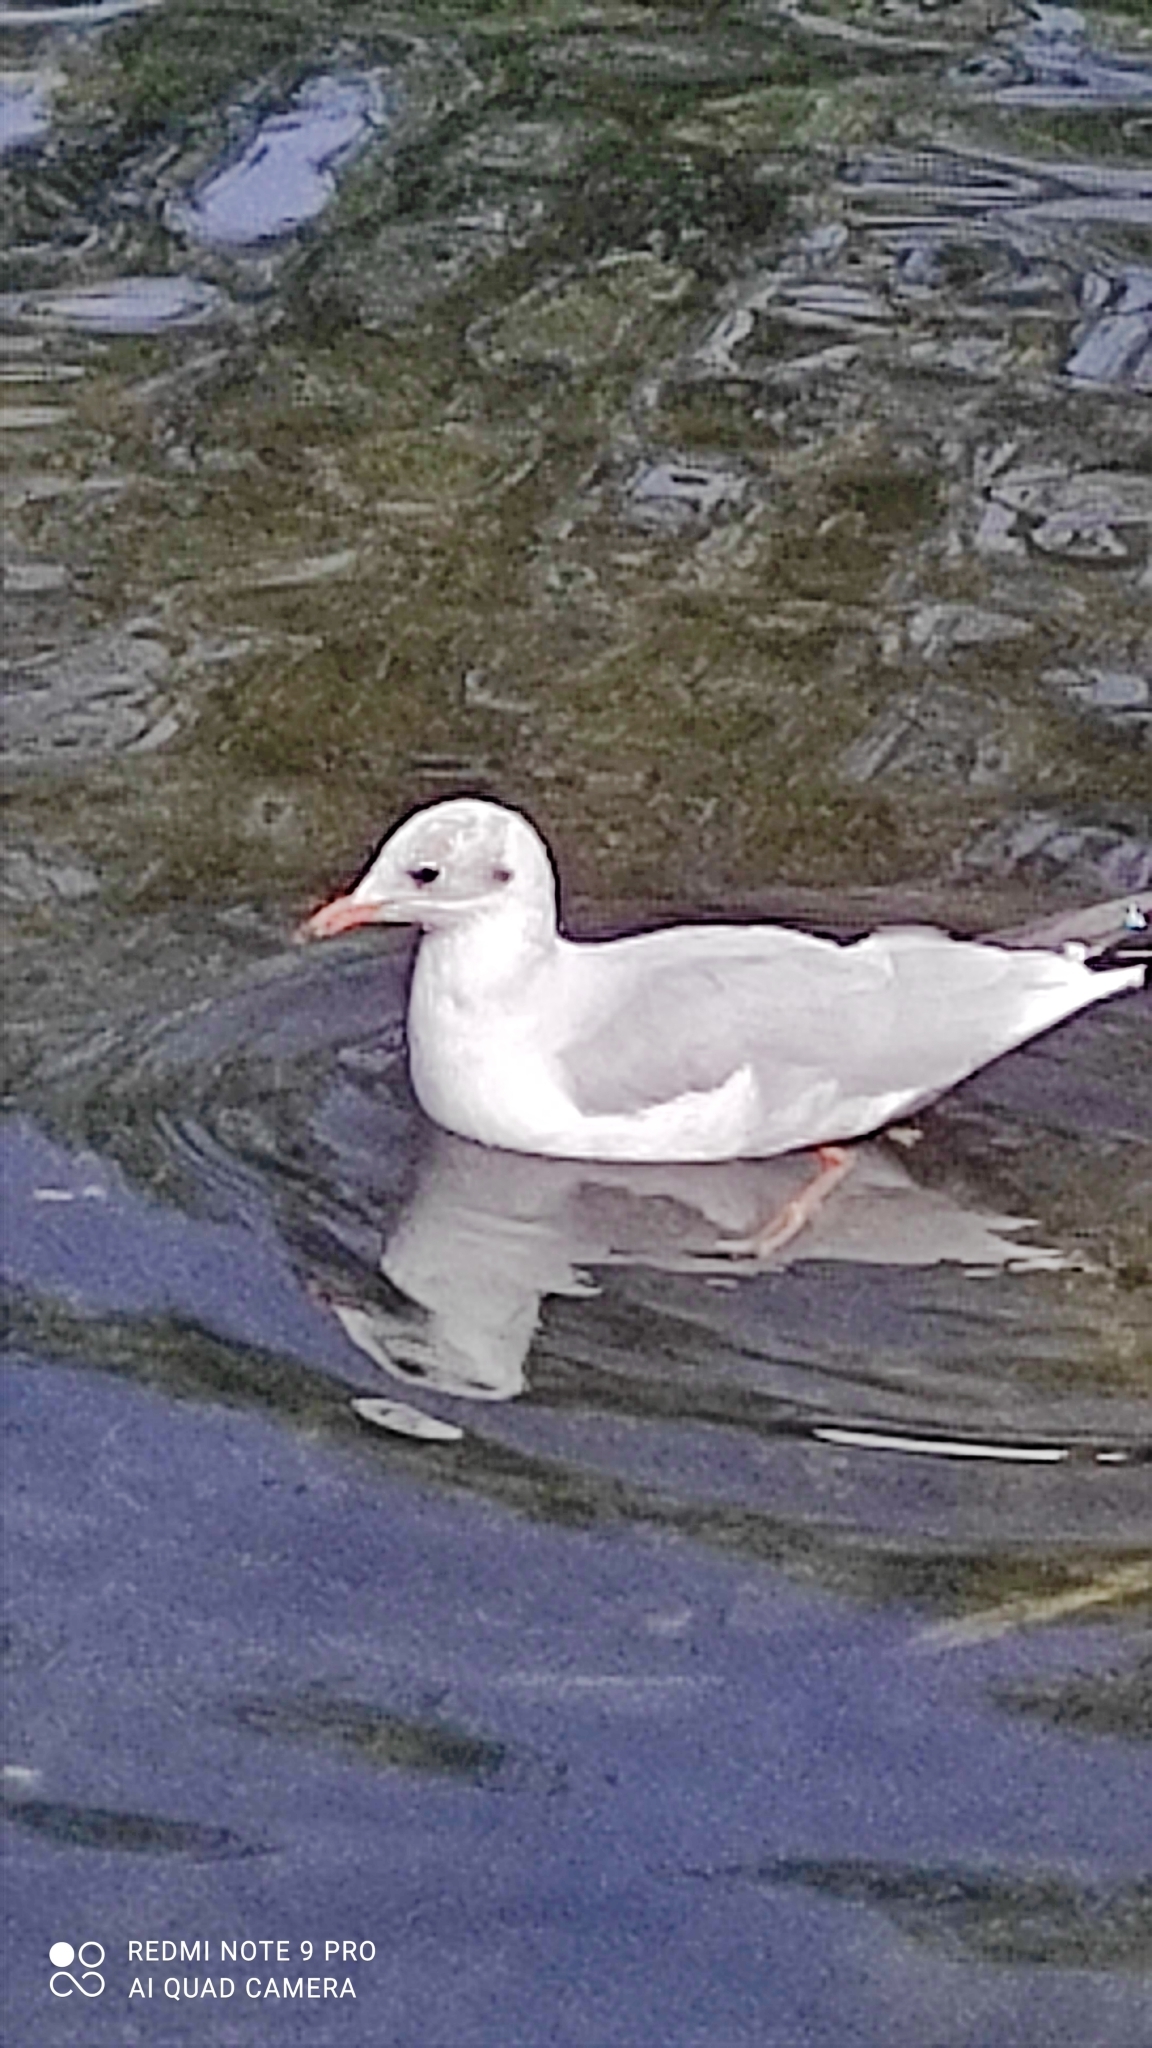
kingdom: Animalia
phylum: Chordata
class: Aves
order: Charadriiformes
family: Laridae
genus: Chroicocephalus
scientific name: Chroicocephalus ridibundus
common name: Black-headed gull
